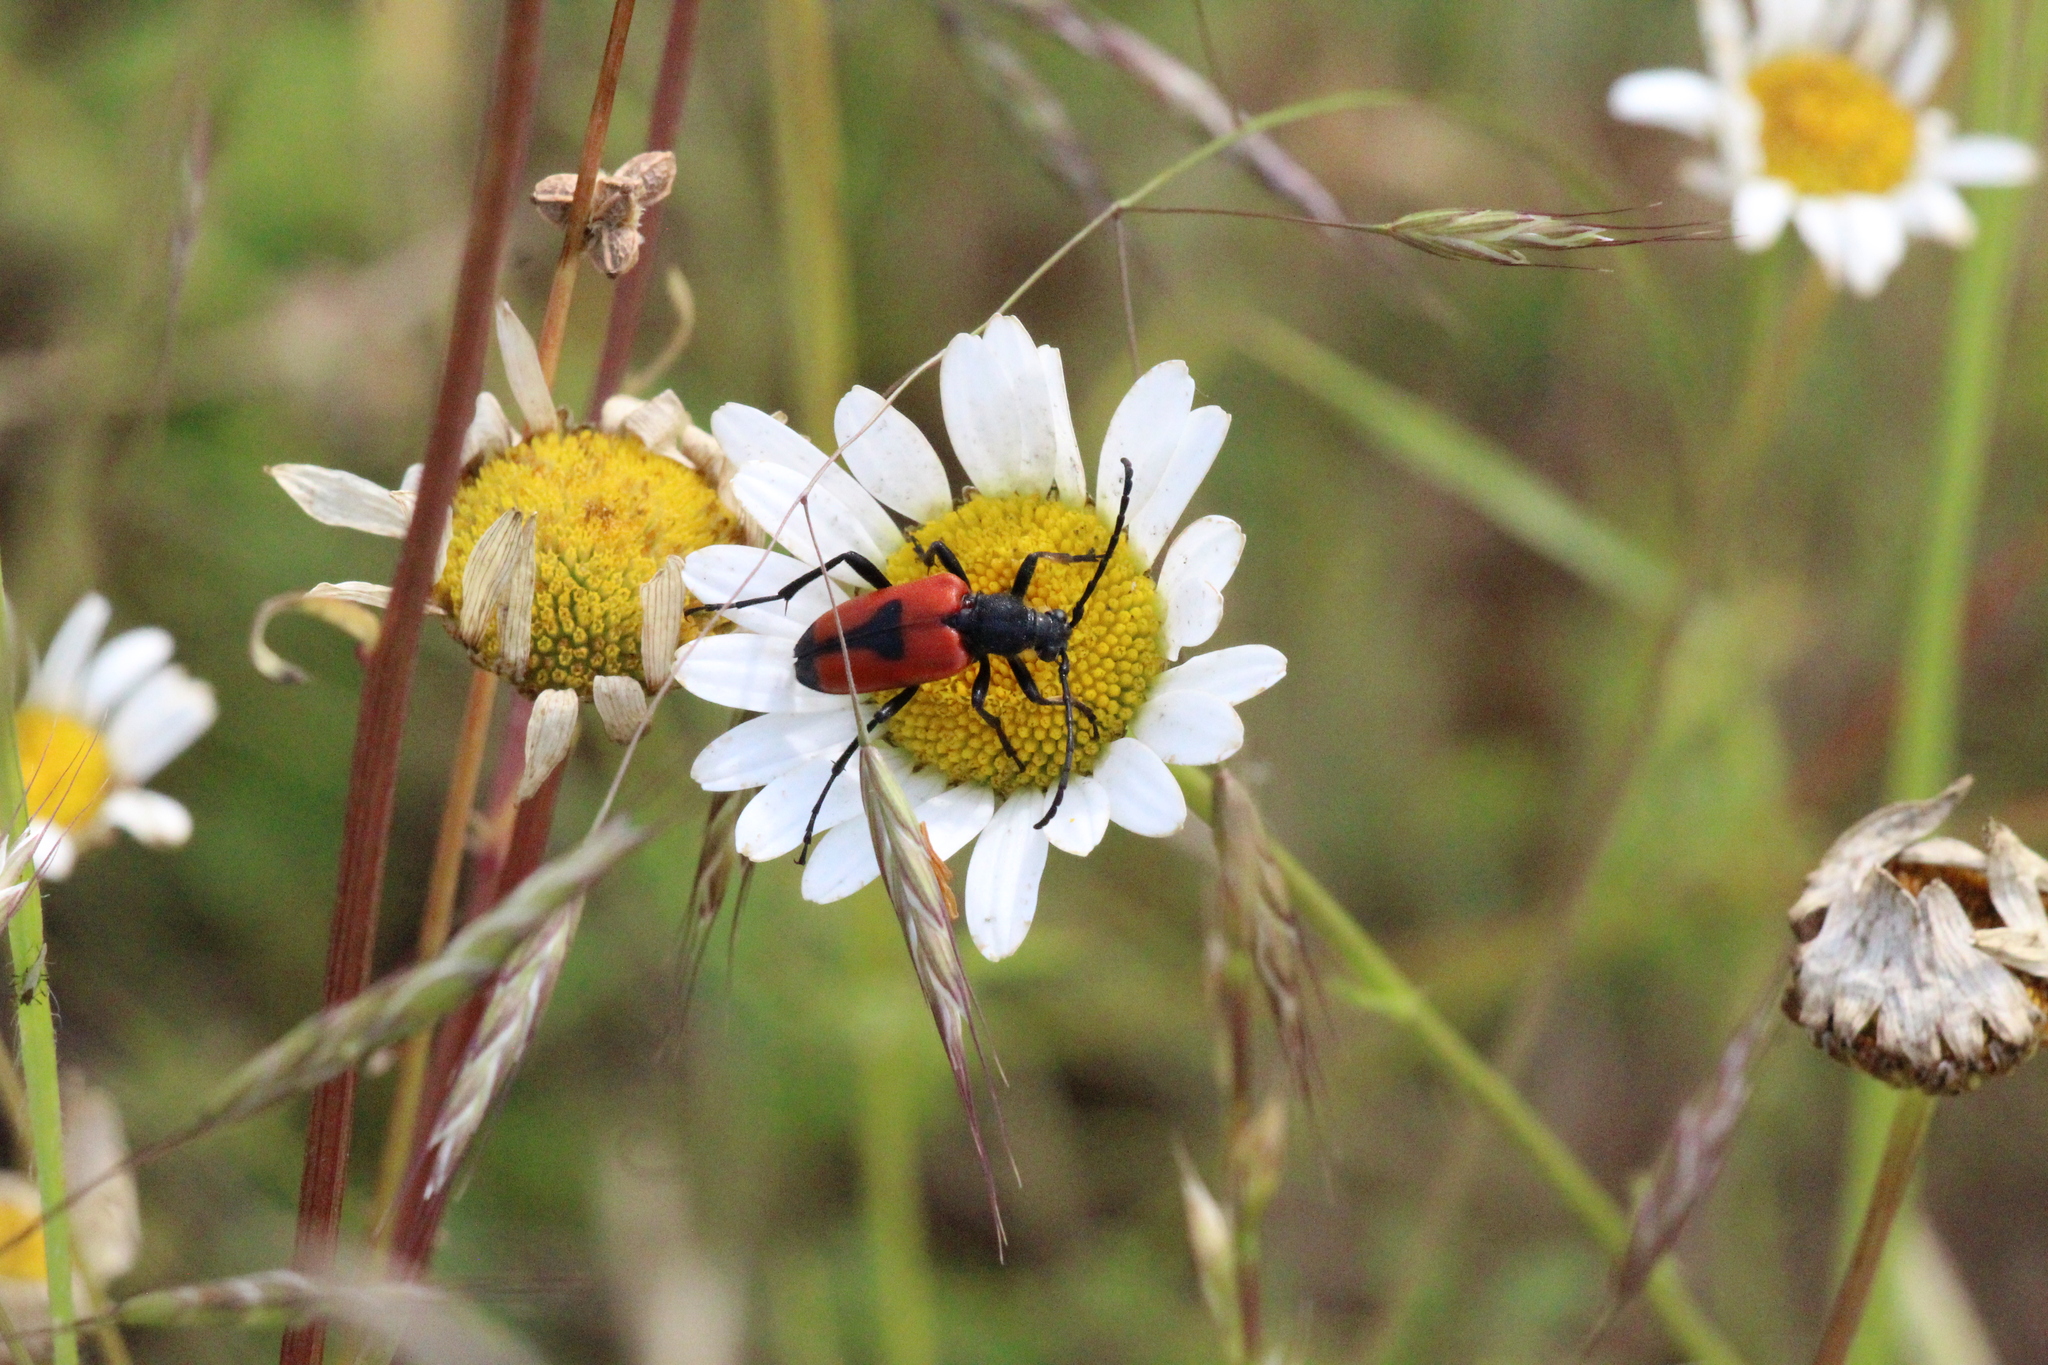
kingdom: Animalia
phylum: Arthropoda
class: Insecta
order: Coleoptera
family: Cerambycidae
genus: Stictoleptura
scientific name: Stictoleptura cordigera
